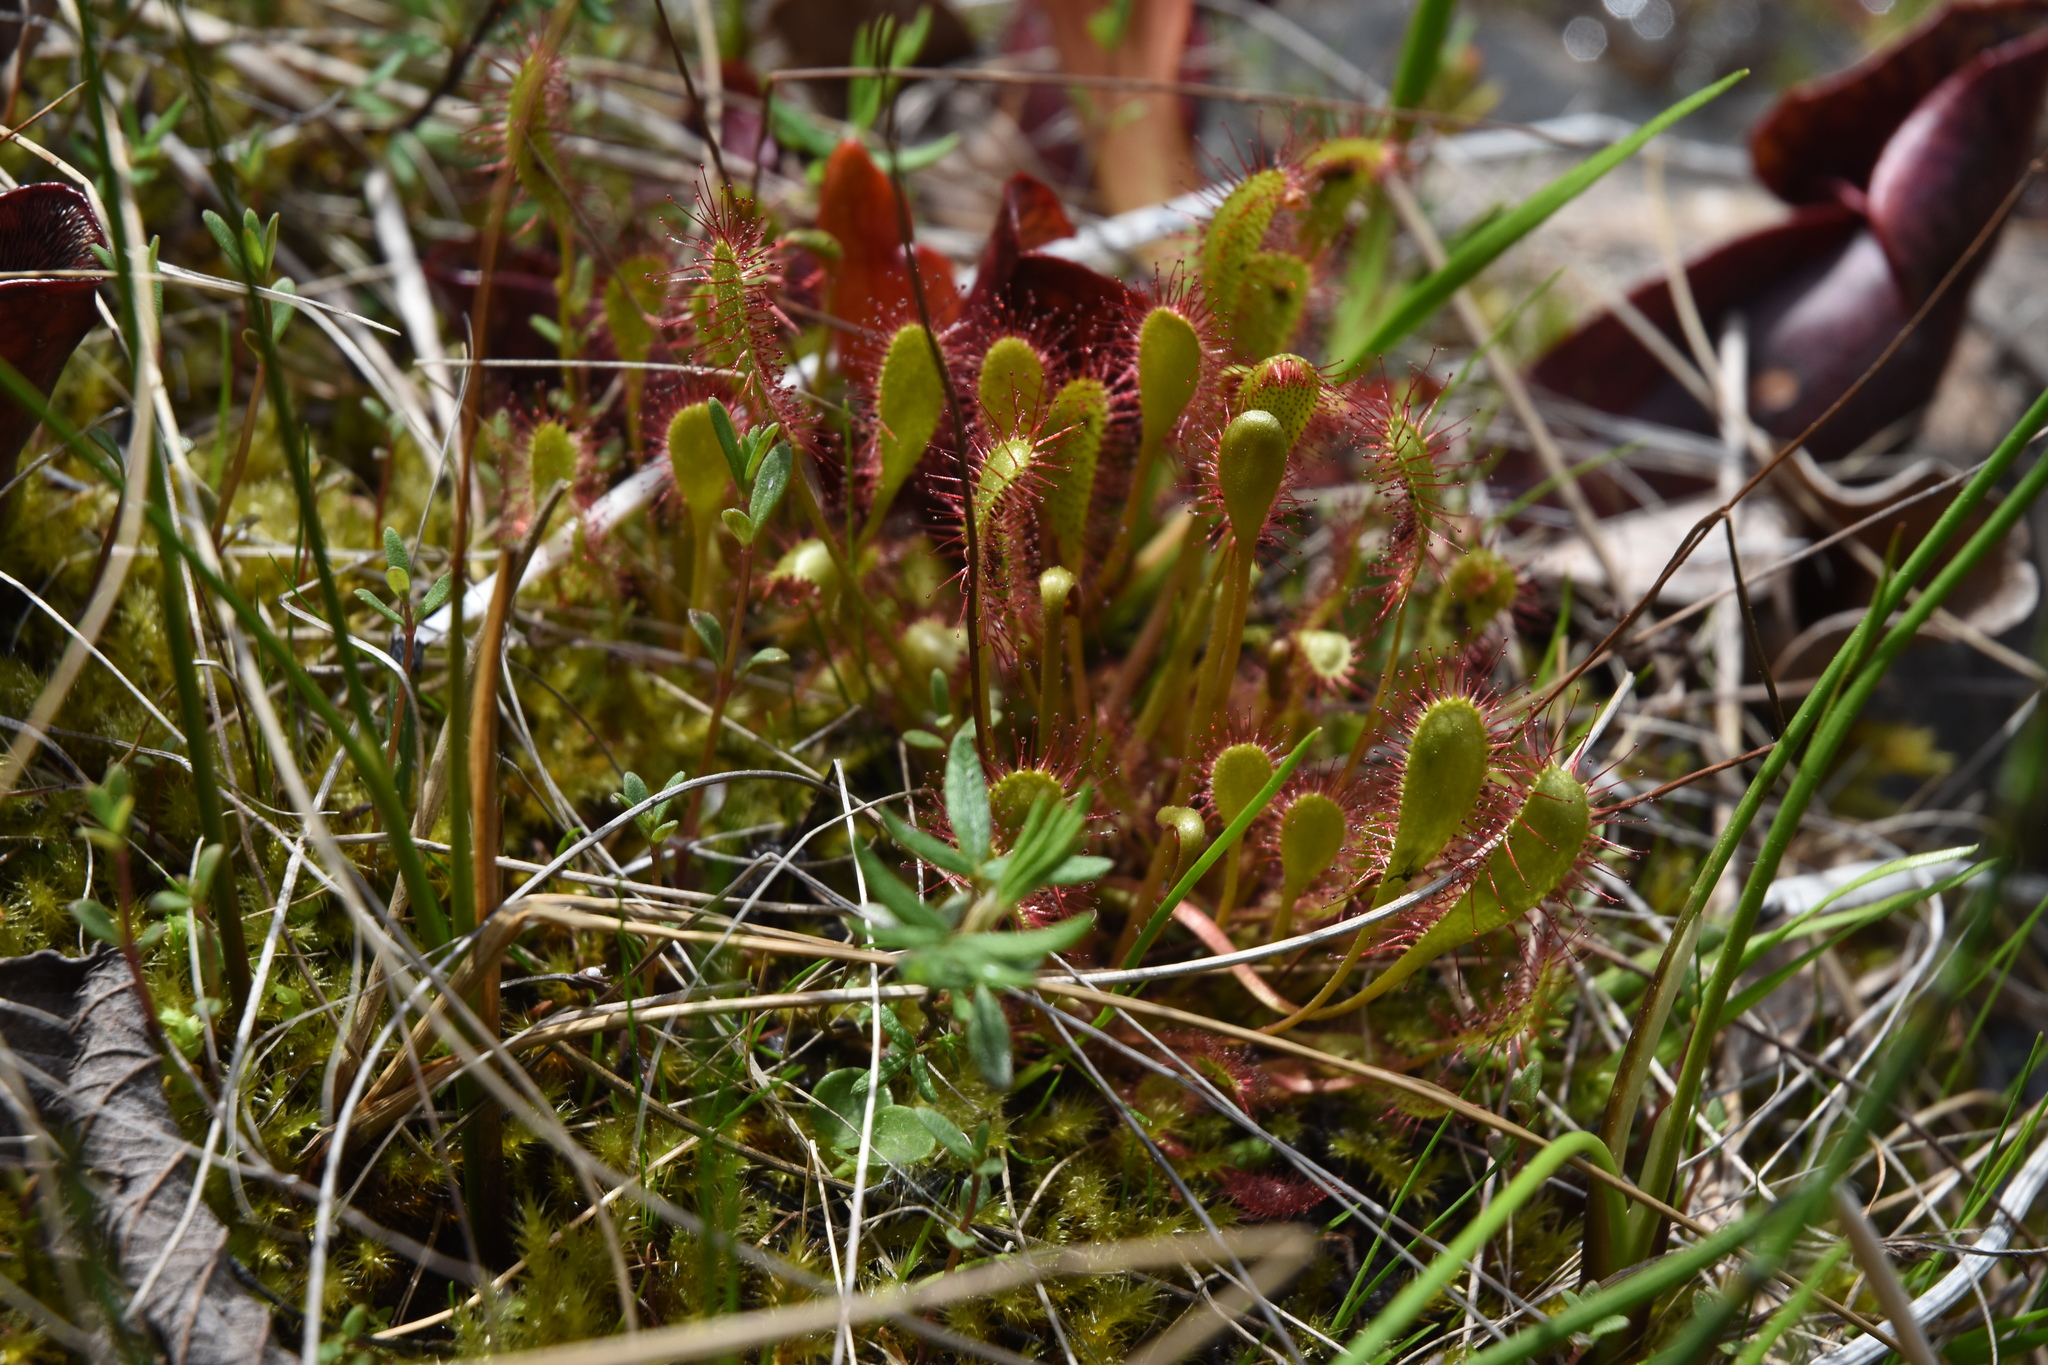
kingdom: Plantae
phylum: Tracheophyta
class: Magnoliopsida
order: Caryophyllales
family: Droseraceae
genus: Drosera
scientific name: Drosera anglica
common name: Great sundew
